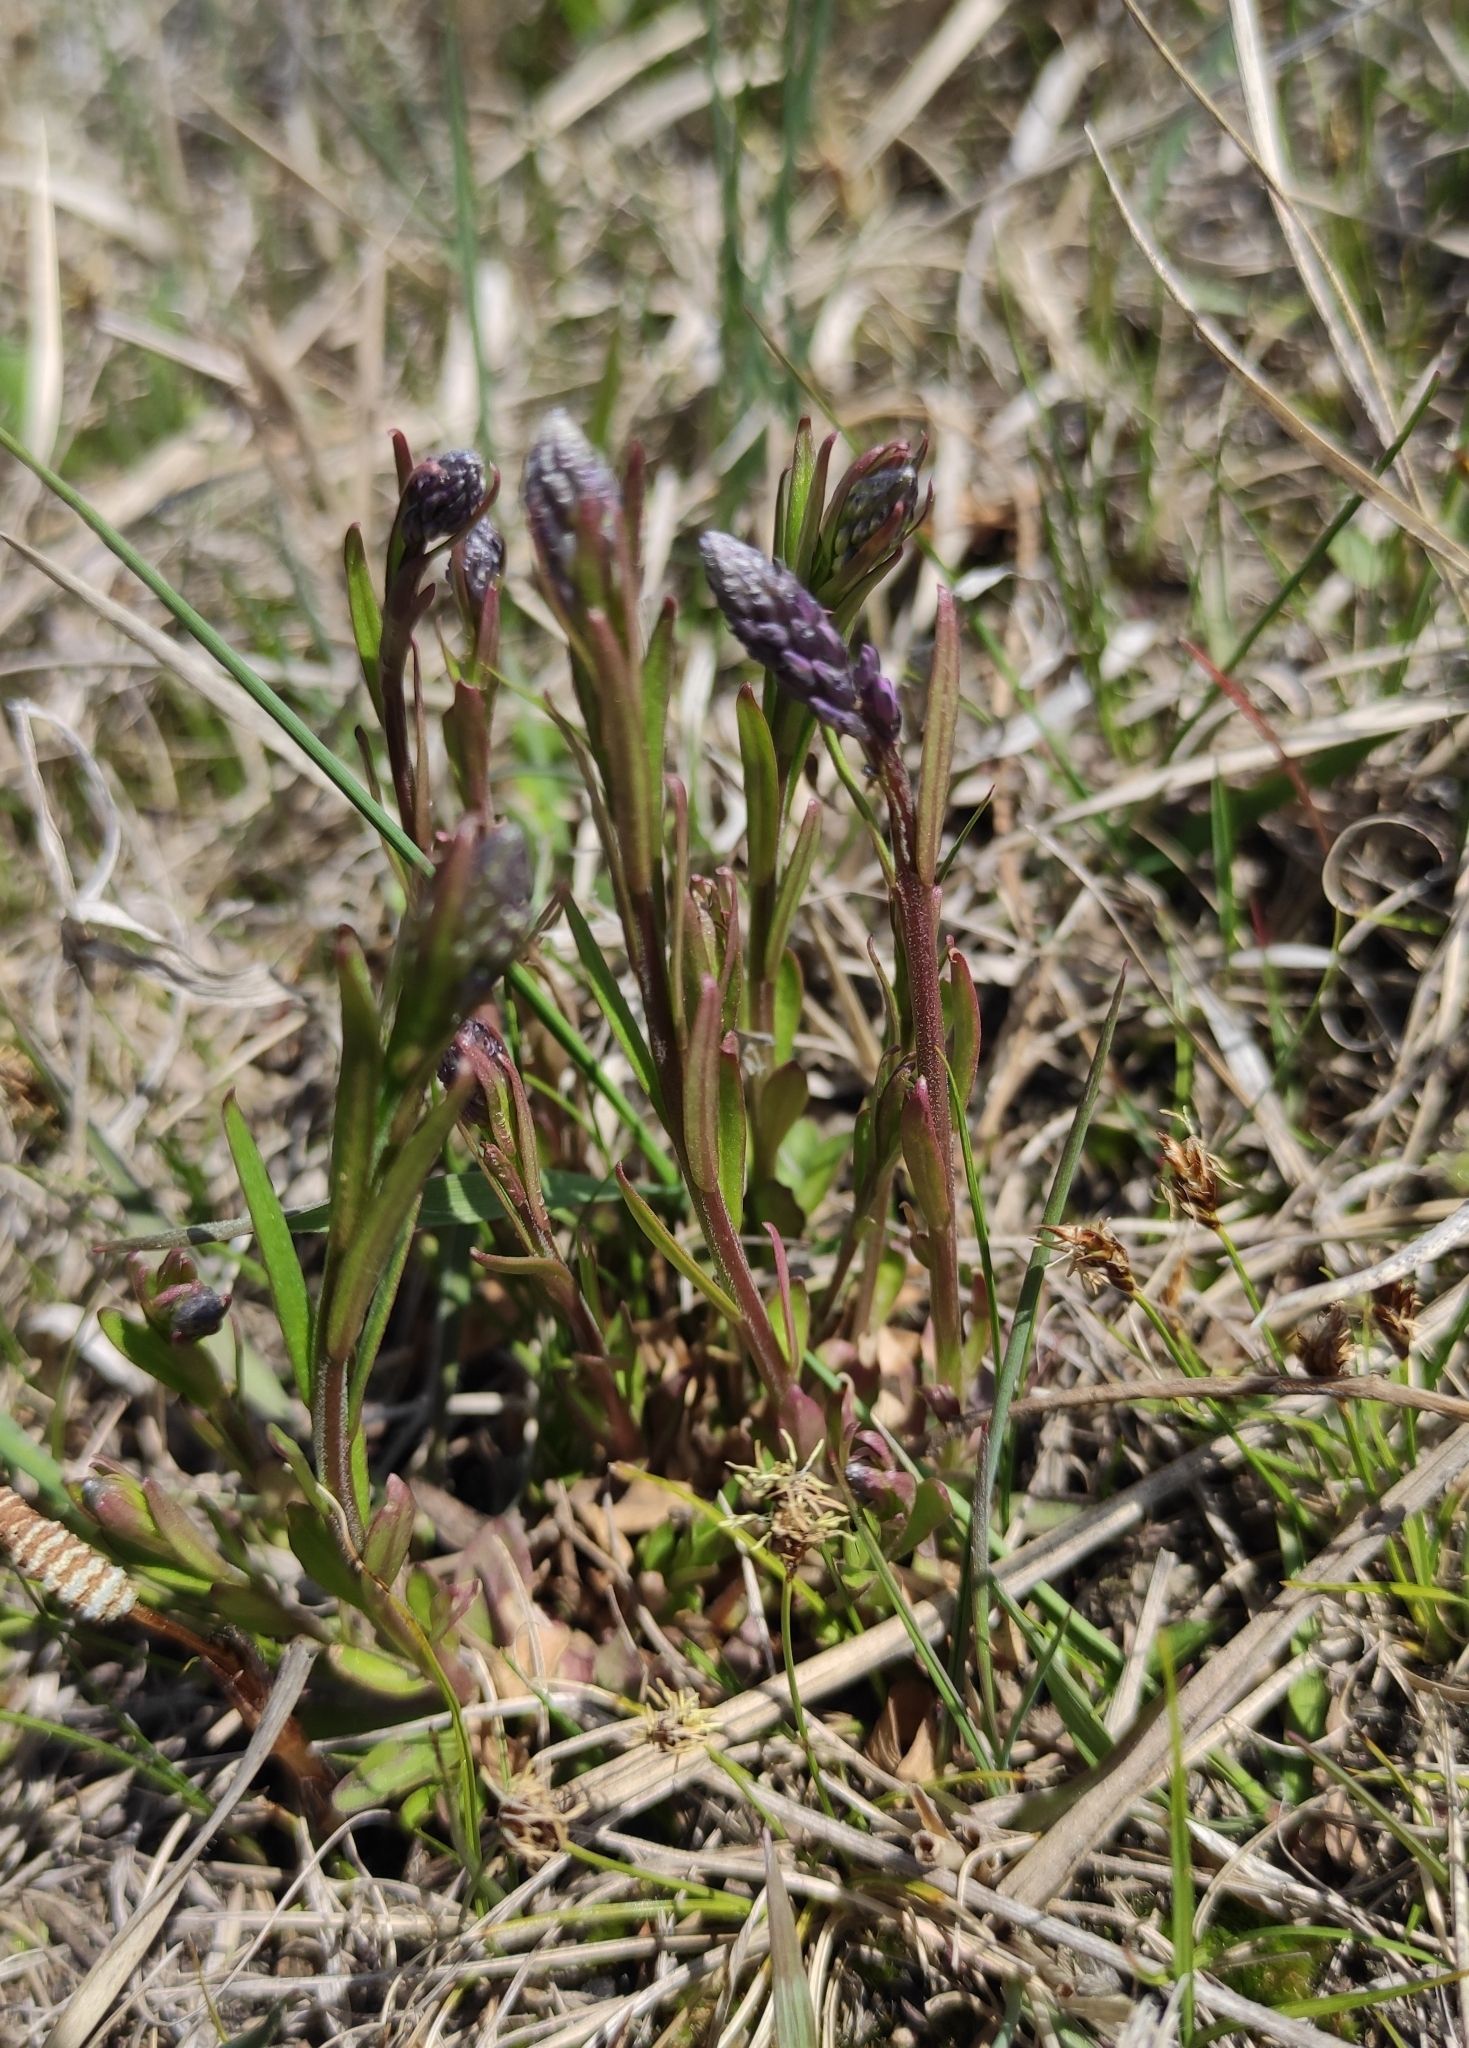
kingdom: Plantae
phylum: Tracheophyta
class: Magnoliopsida
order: Fabales
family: Polygalaceae
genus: Polygala
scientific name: Polygala comosa
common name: Tufted milkwort
